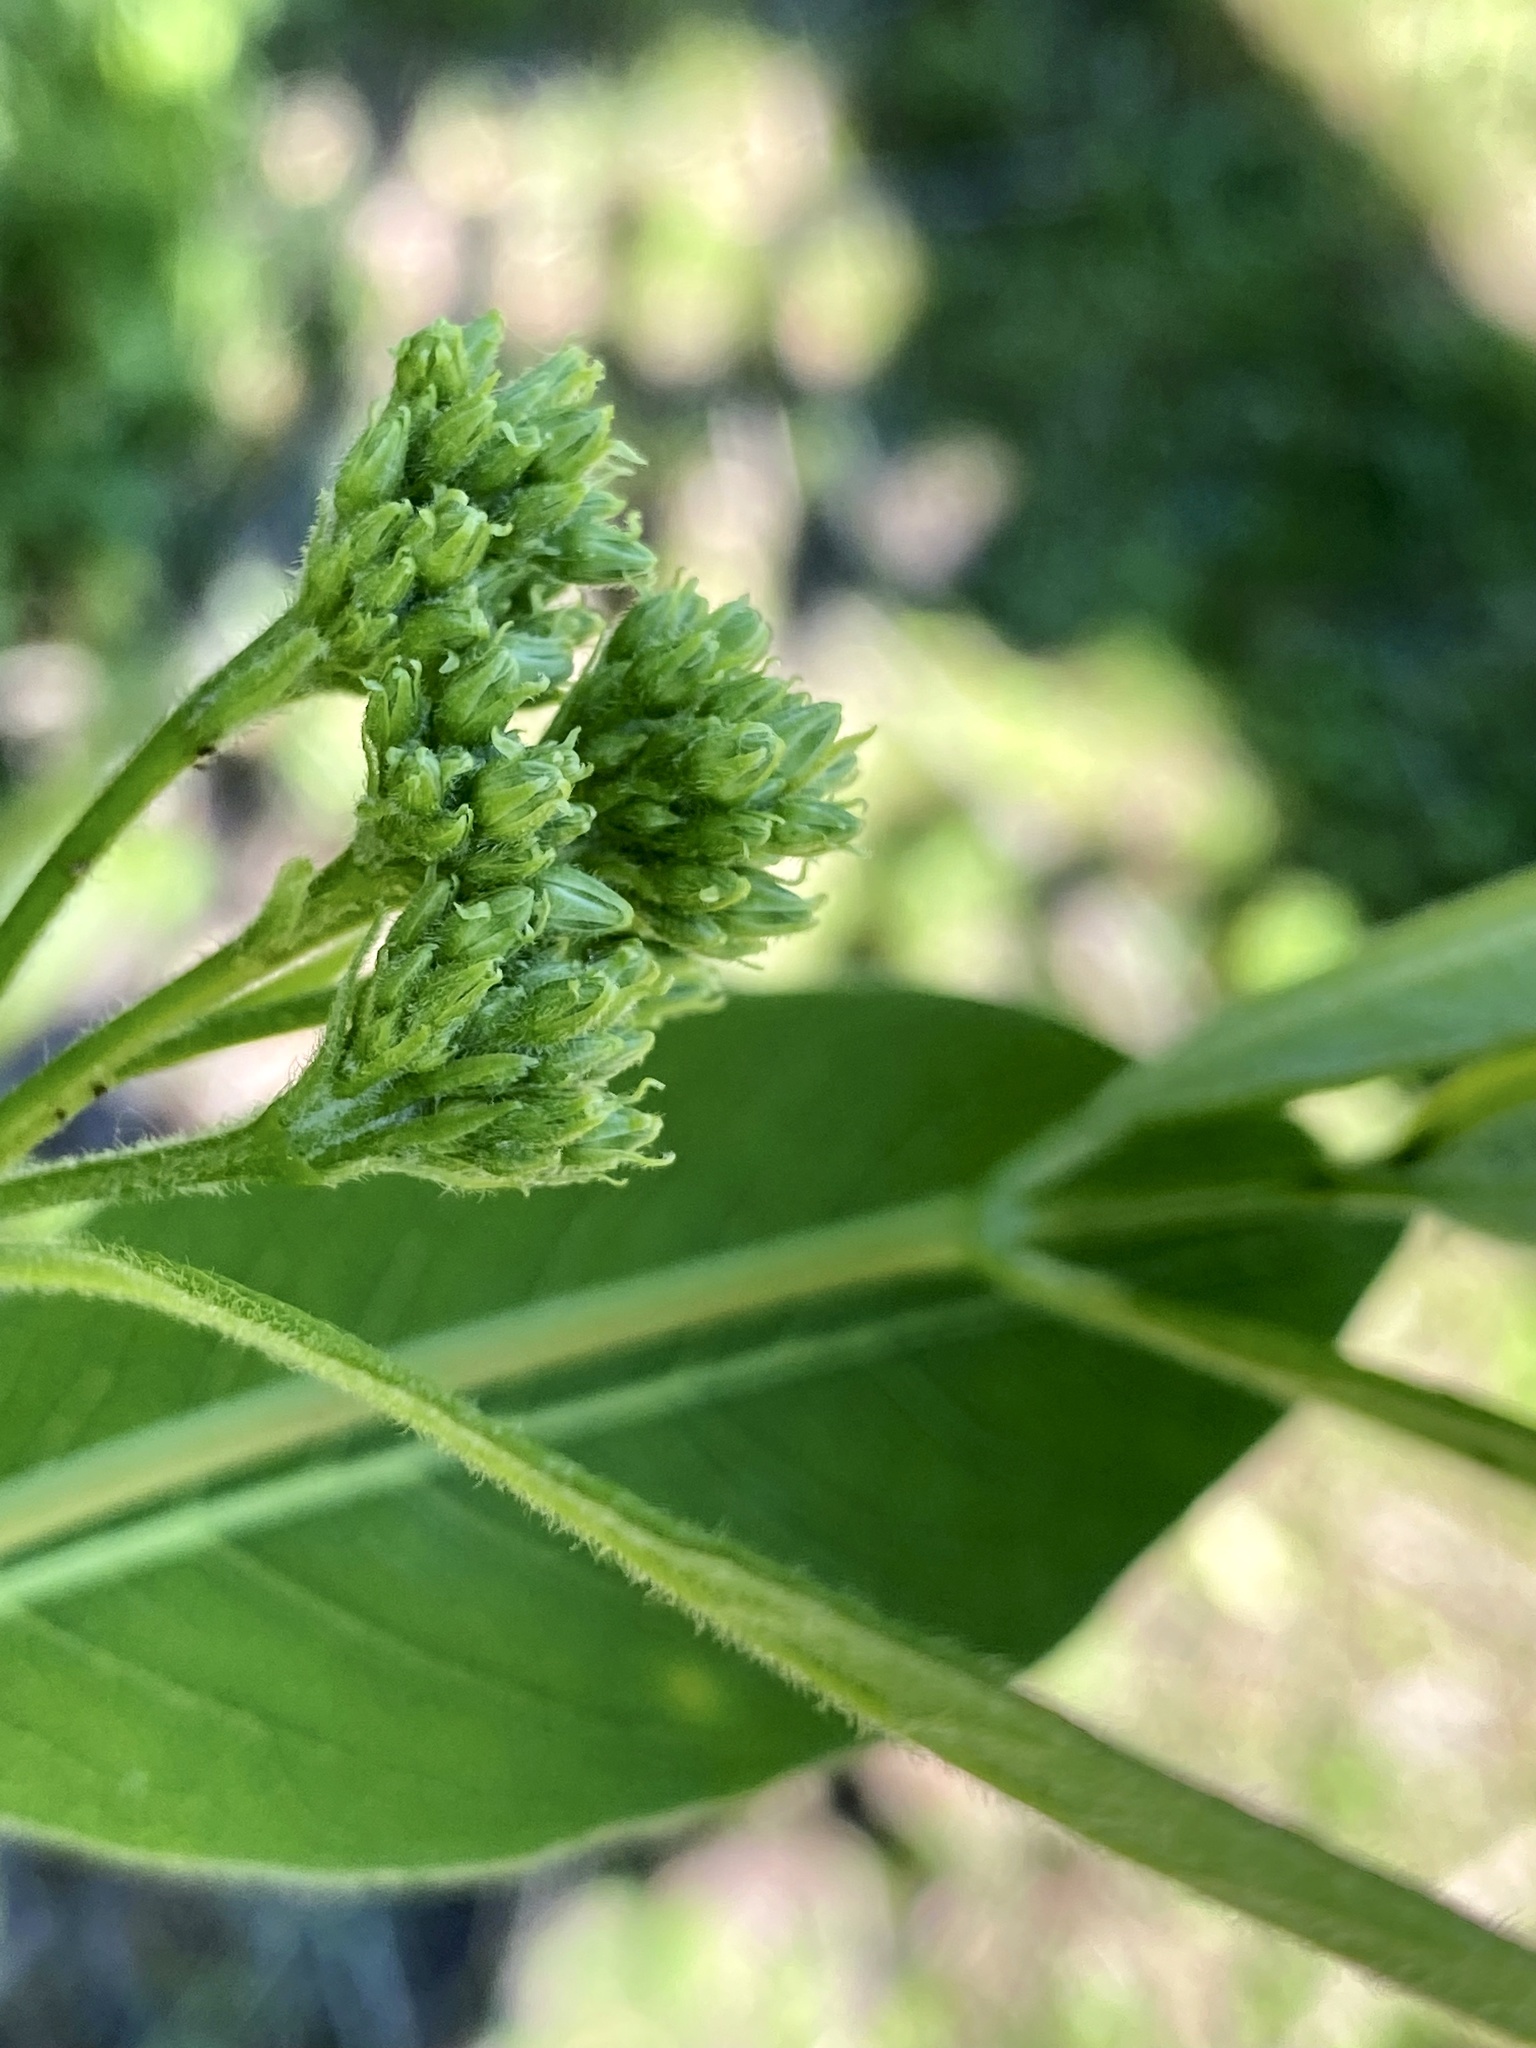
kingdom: Plantae
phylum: Tracheophyta
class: Magnoliopsida
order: Gentianales
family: Apocynaceae
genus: Apocynum
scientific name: Apocynum cannabinum
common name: Hemp dogbane
